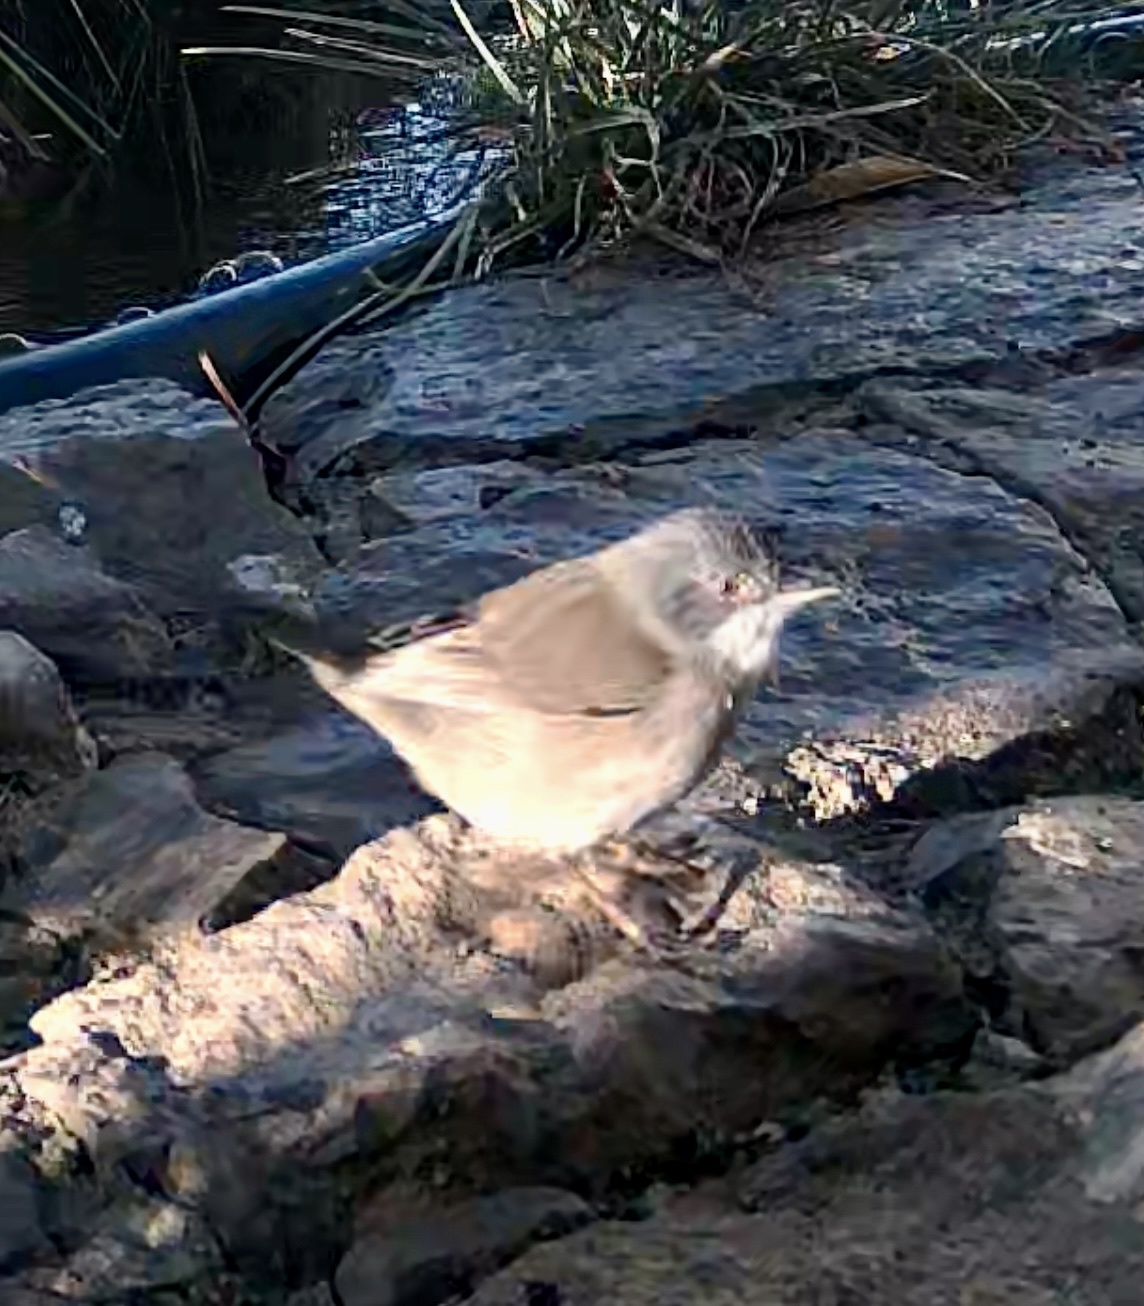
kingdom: Animalia
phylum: Chordata
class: Aves
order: Passeriformes
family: Sylviidae
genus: Curruca
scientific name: Curruca melanocephala
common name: Sardinian warbler
